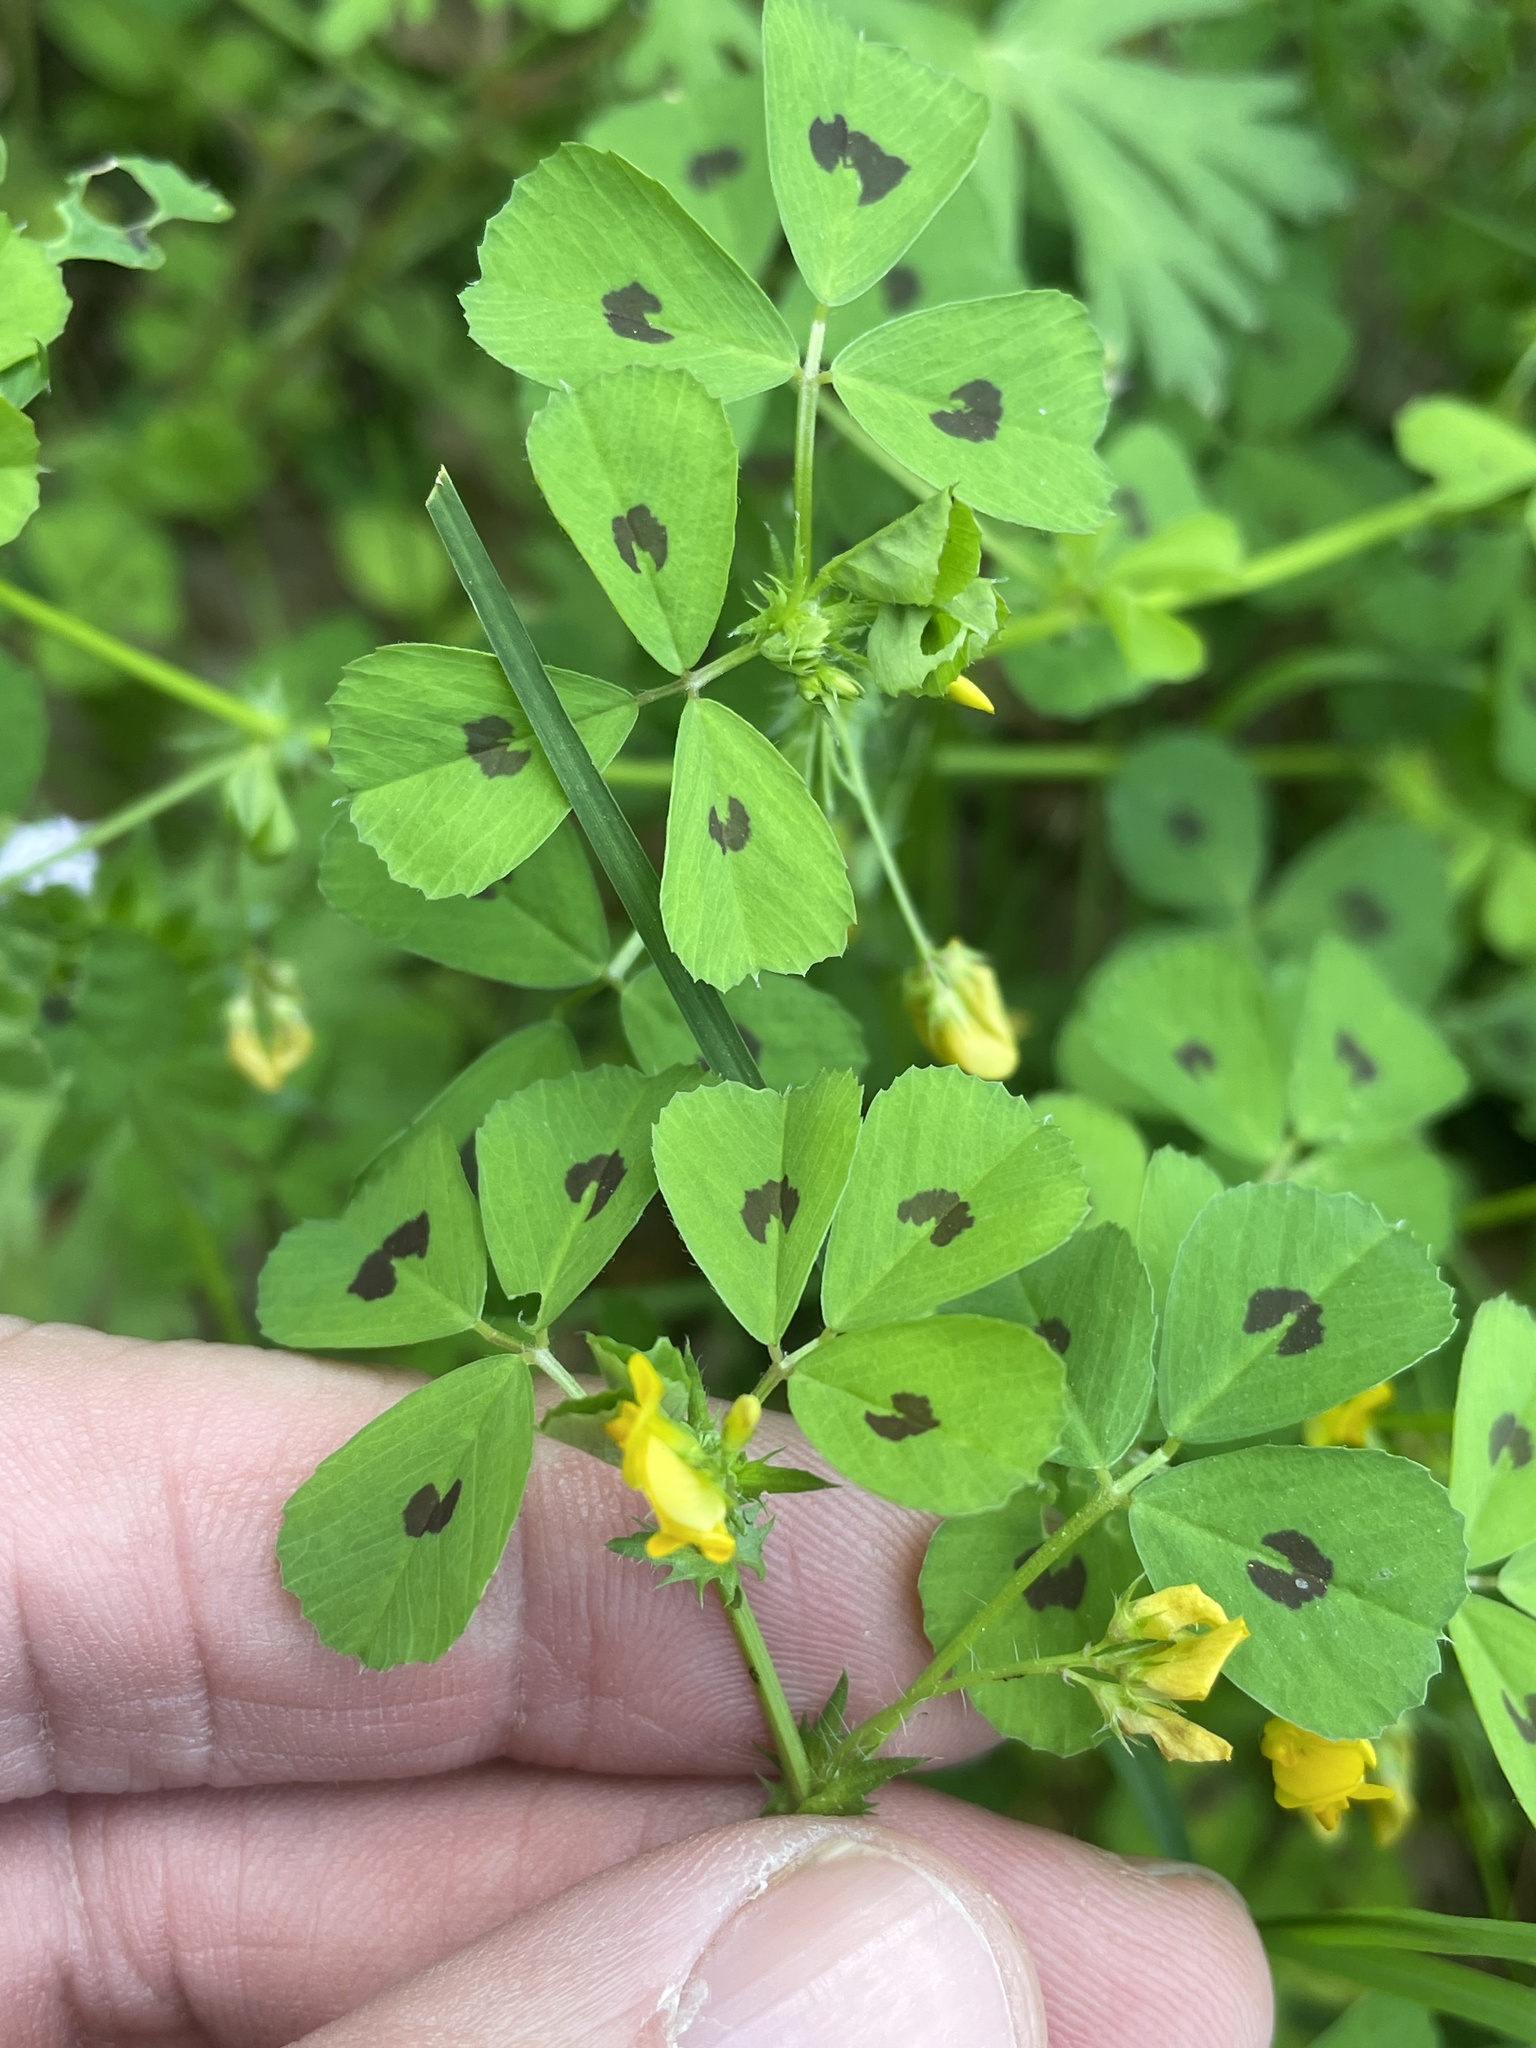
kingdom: Plantae
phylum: Tracheophyta
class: Magnoliopsida
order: Fabales
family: Fabaceae
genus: Medicago
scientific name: Medicago arabica
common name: Spotted medick
